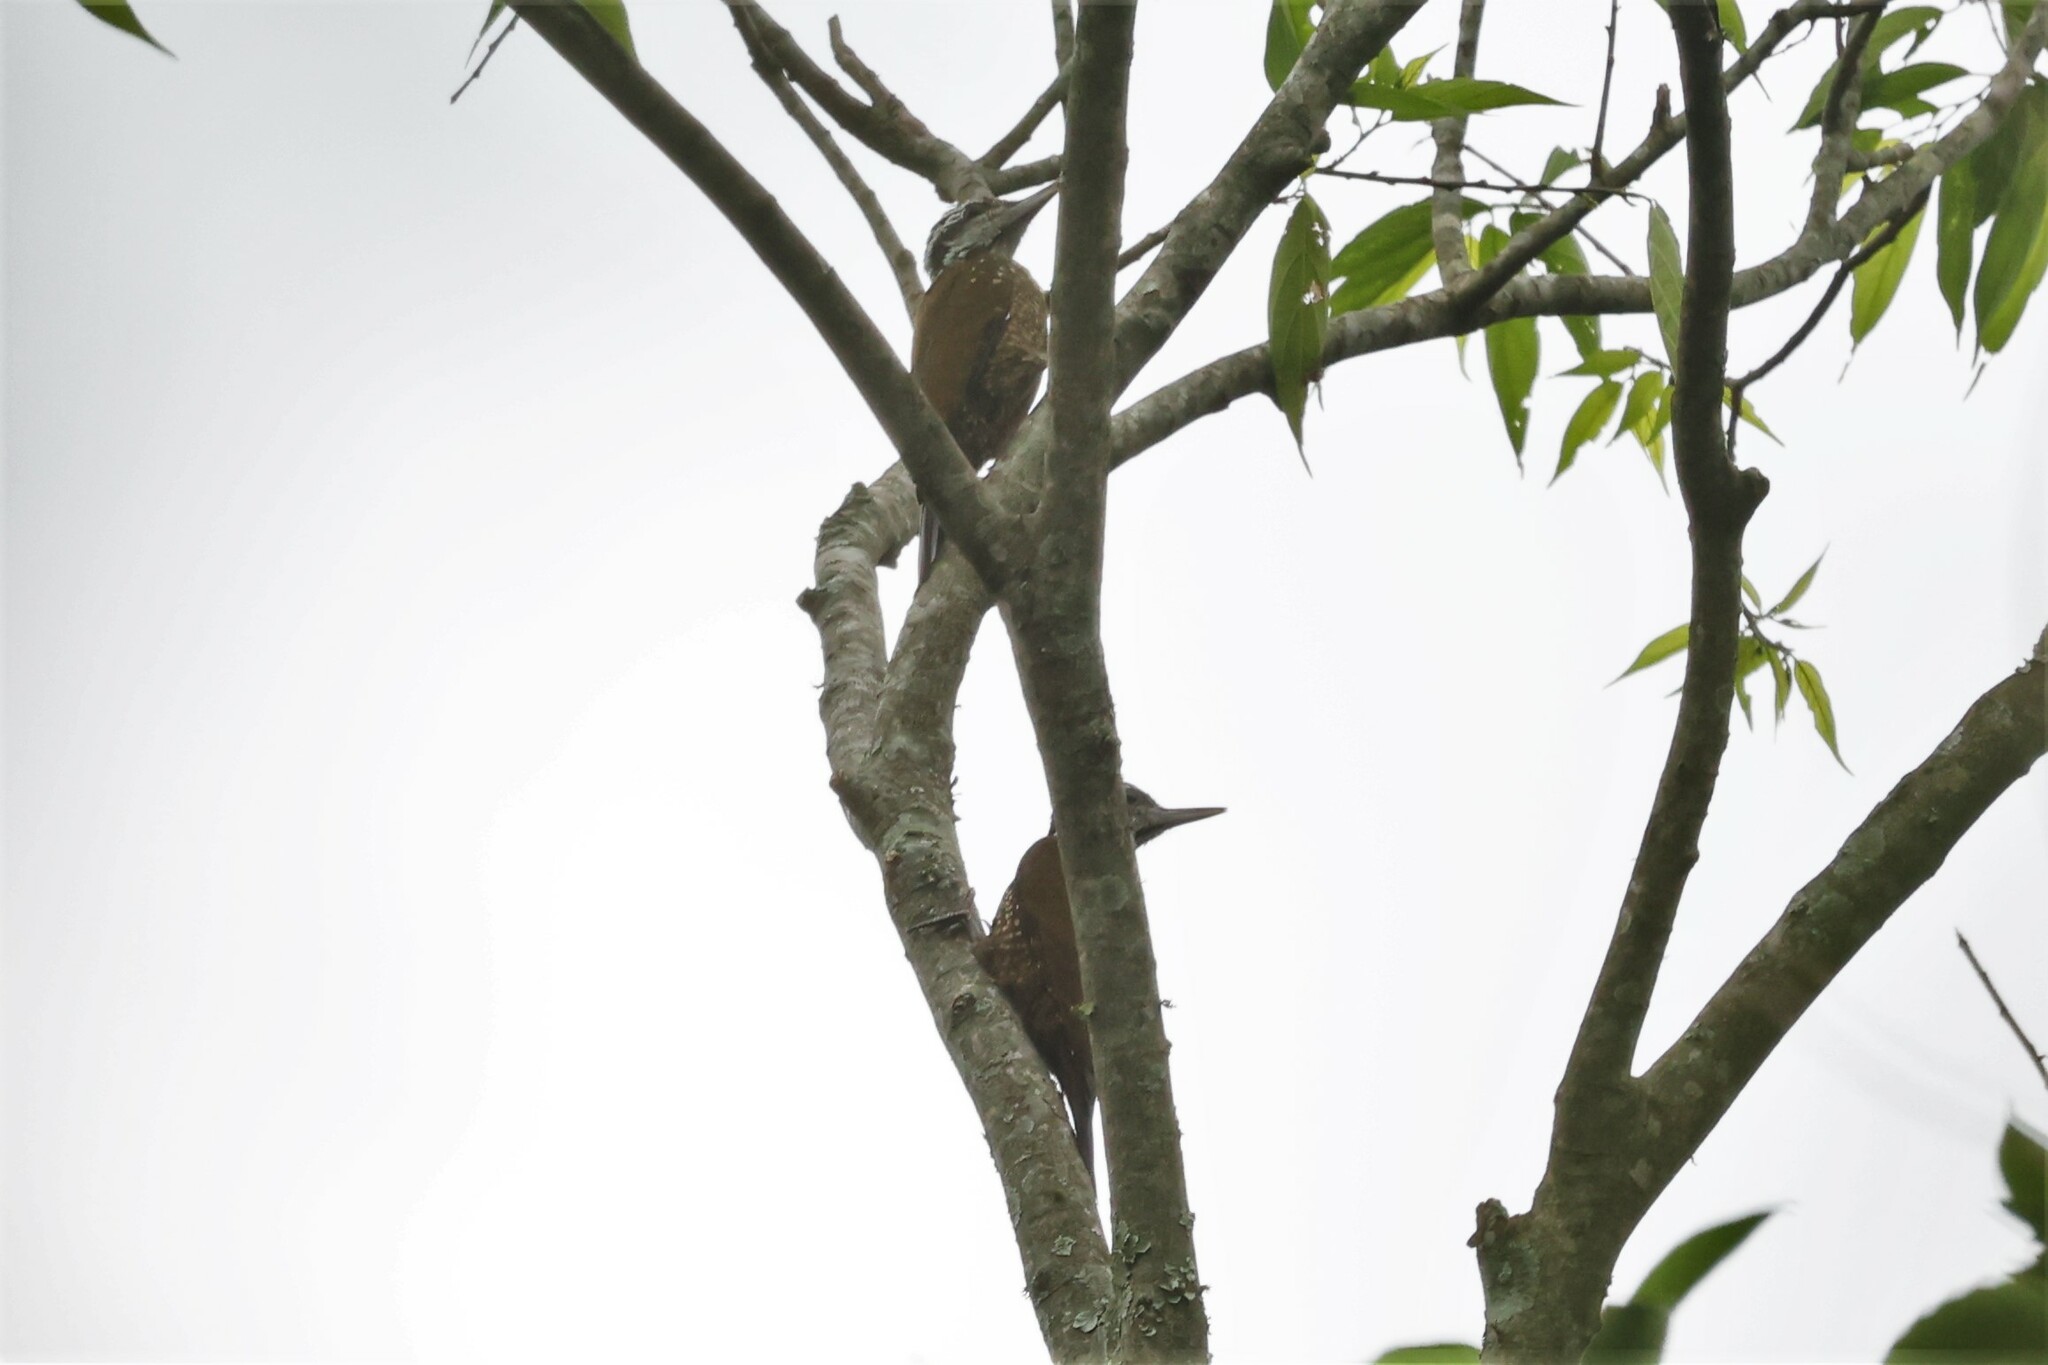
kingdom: Animalia
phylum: Chordata
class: Aves
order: Piciformes
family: Picidae
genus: Chloropicus
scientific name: Chloropicus xantholophus
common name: Yellow-crested woodpecker
